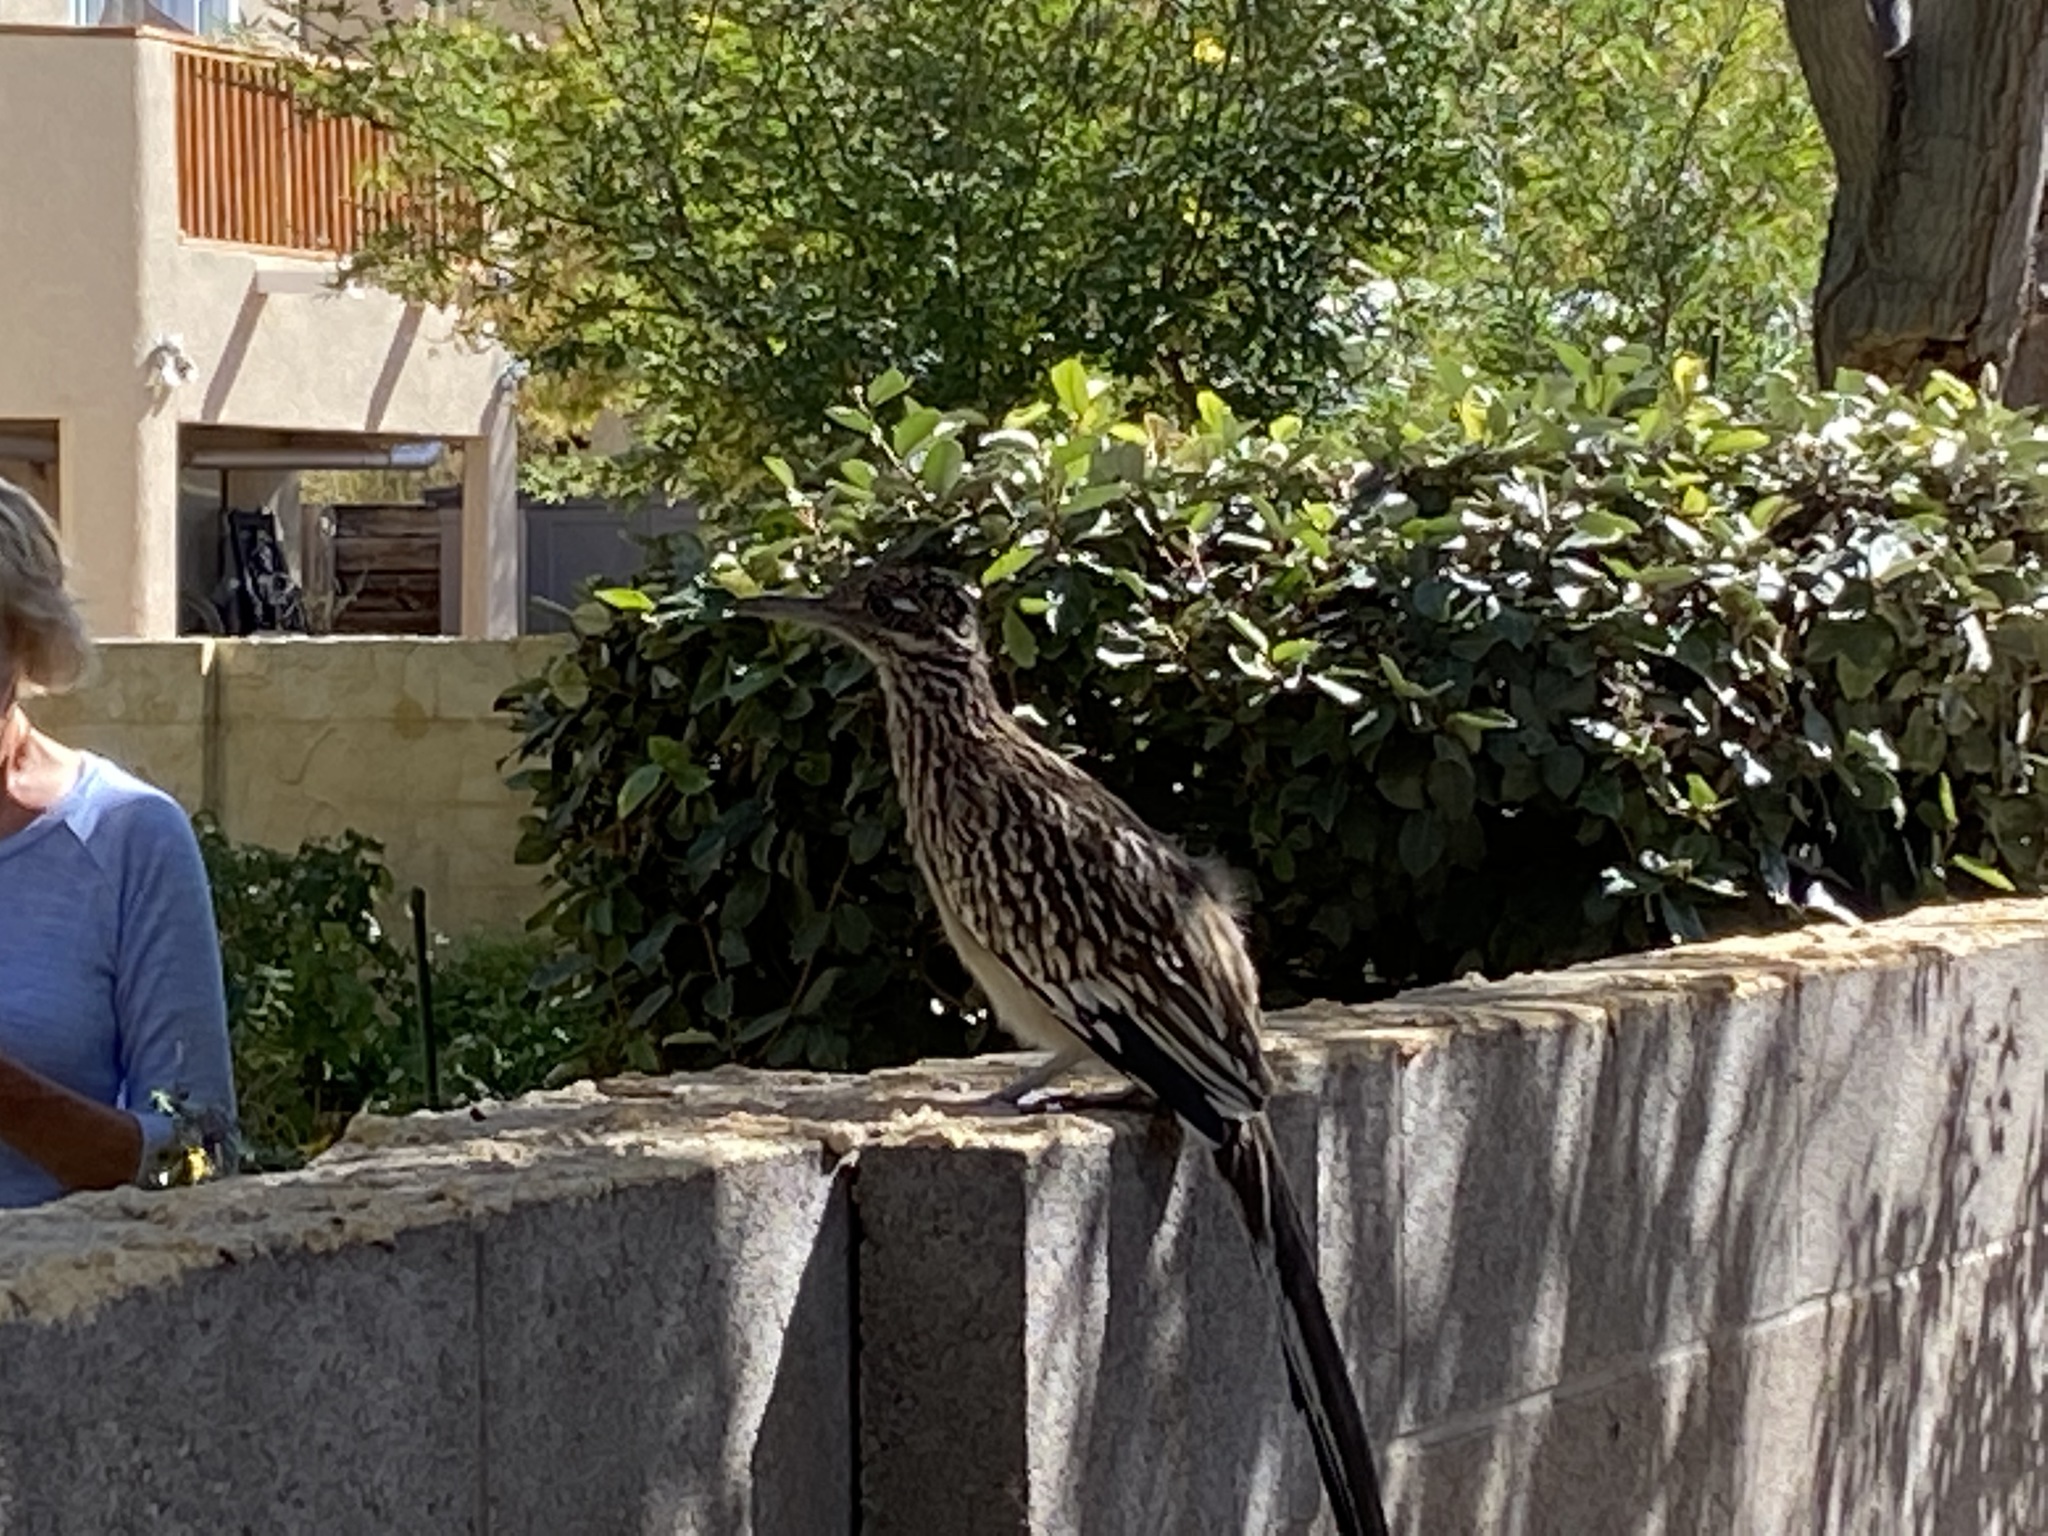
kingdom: Animalia
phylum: Chordata
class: Aves
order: Cuculiformes
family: Cuculidae
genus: Geococcyx
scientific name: Geococcyx californianus
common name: Greater roadrunner
